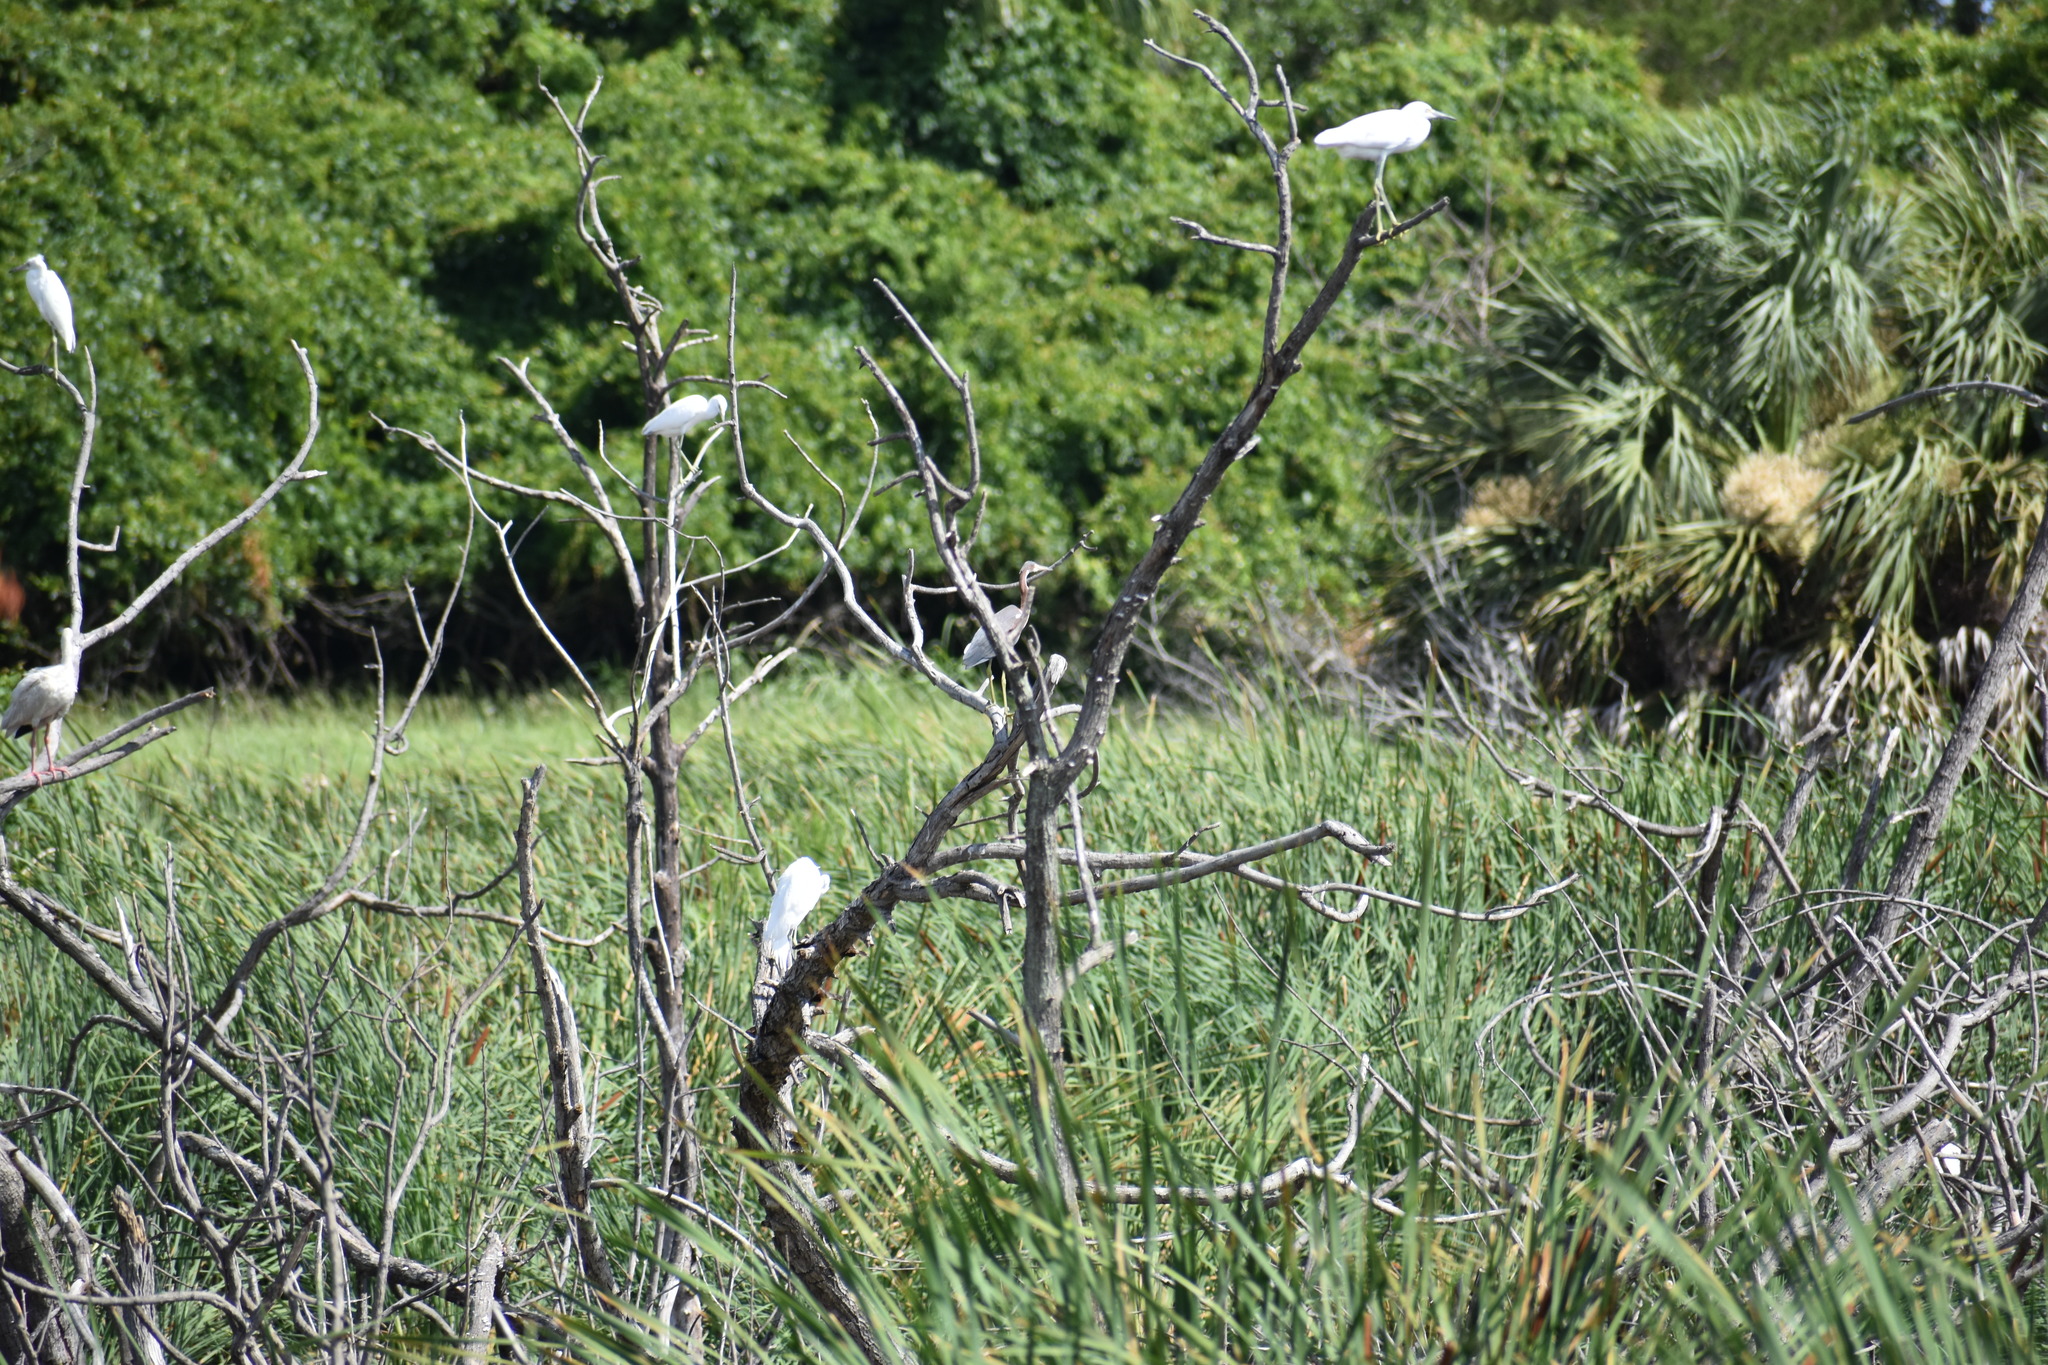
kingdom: Animalia
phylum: Chordata
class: Aves
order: Pelecaniformes
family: Ardeidae
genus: Egretta
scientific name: Egretta tricolor
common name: Tricolored heron
